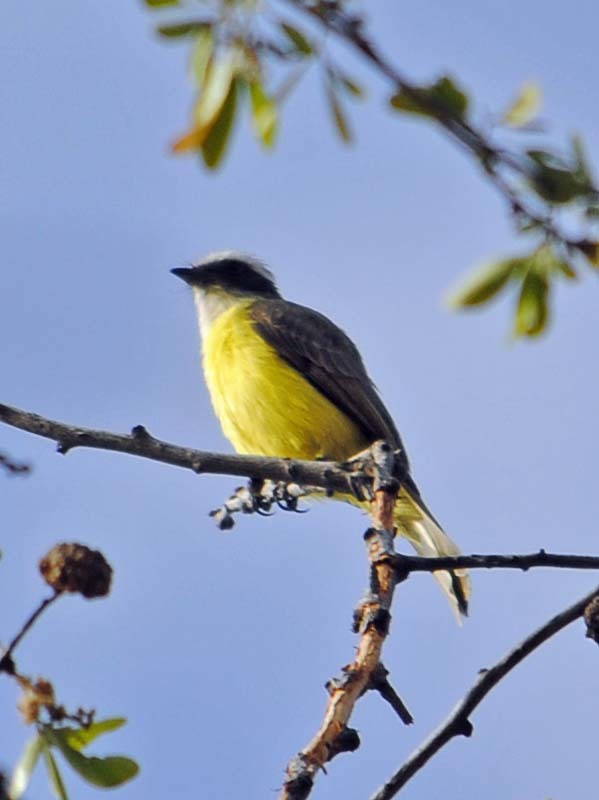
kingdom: Animalia
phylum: Chordata
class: Aves
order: Passeriformes
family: Tyrannidae
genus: Myiozetetes
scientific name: Myiozetetes similis
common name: Social flycatcher
